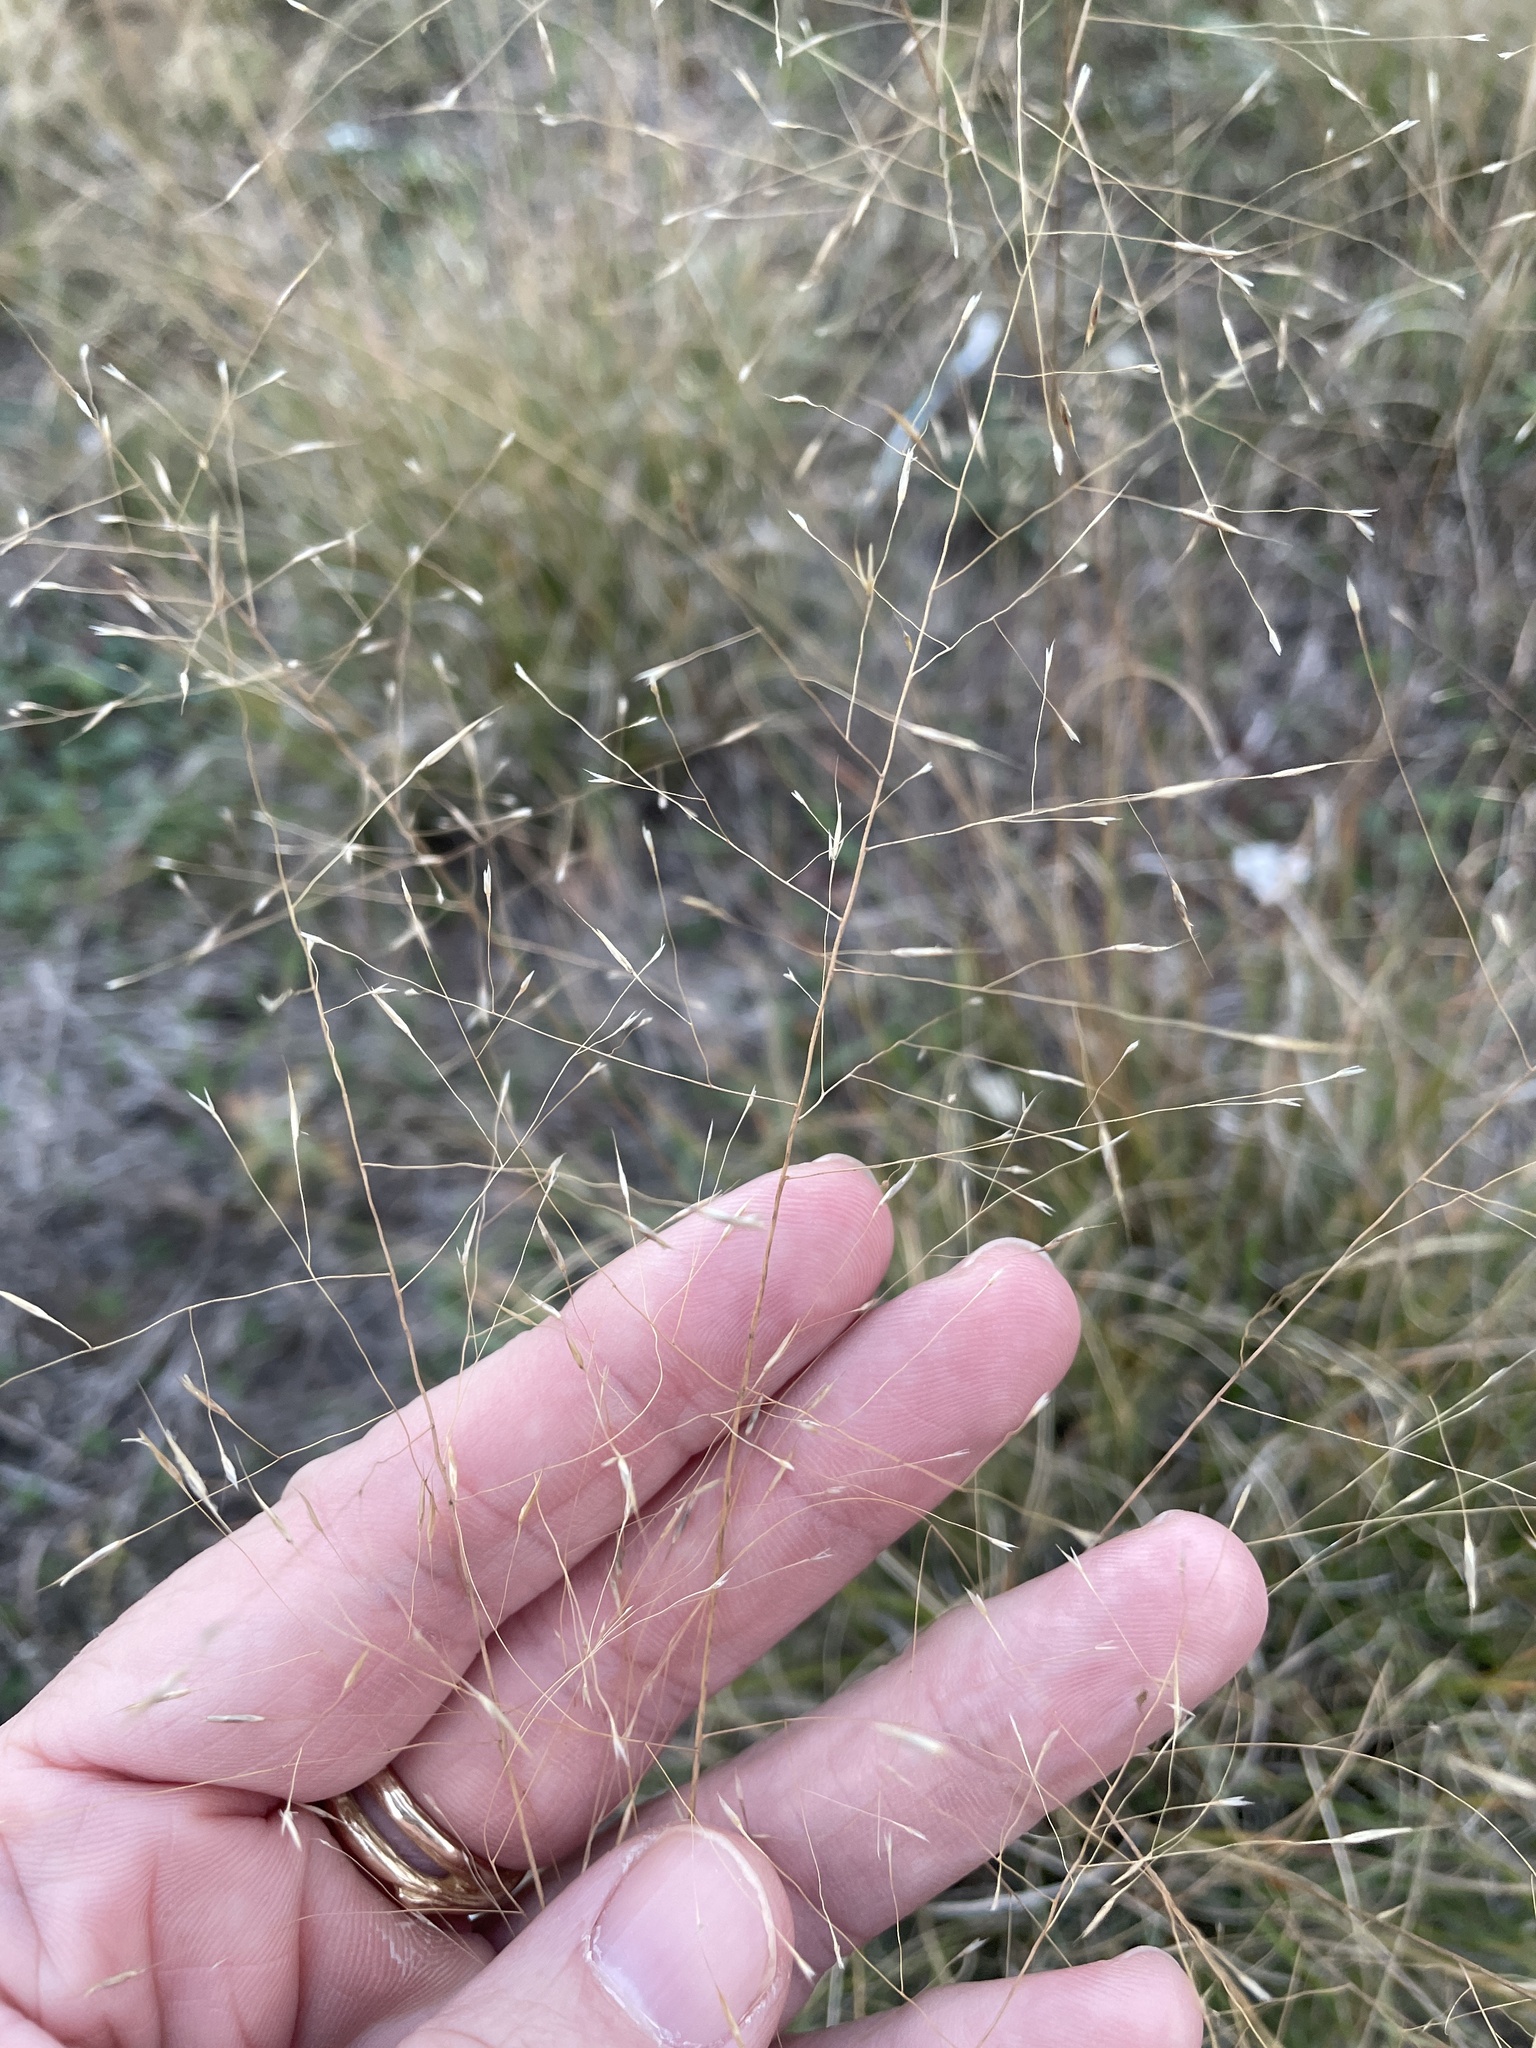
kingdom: Plantae
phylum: Tracheophyta
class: Liliopsida
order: Poales
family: Poaceae
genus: Muhlenbergia
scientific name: Muhlenbergia reverchonii
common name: Seep muhly
